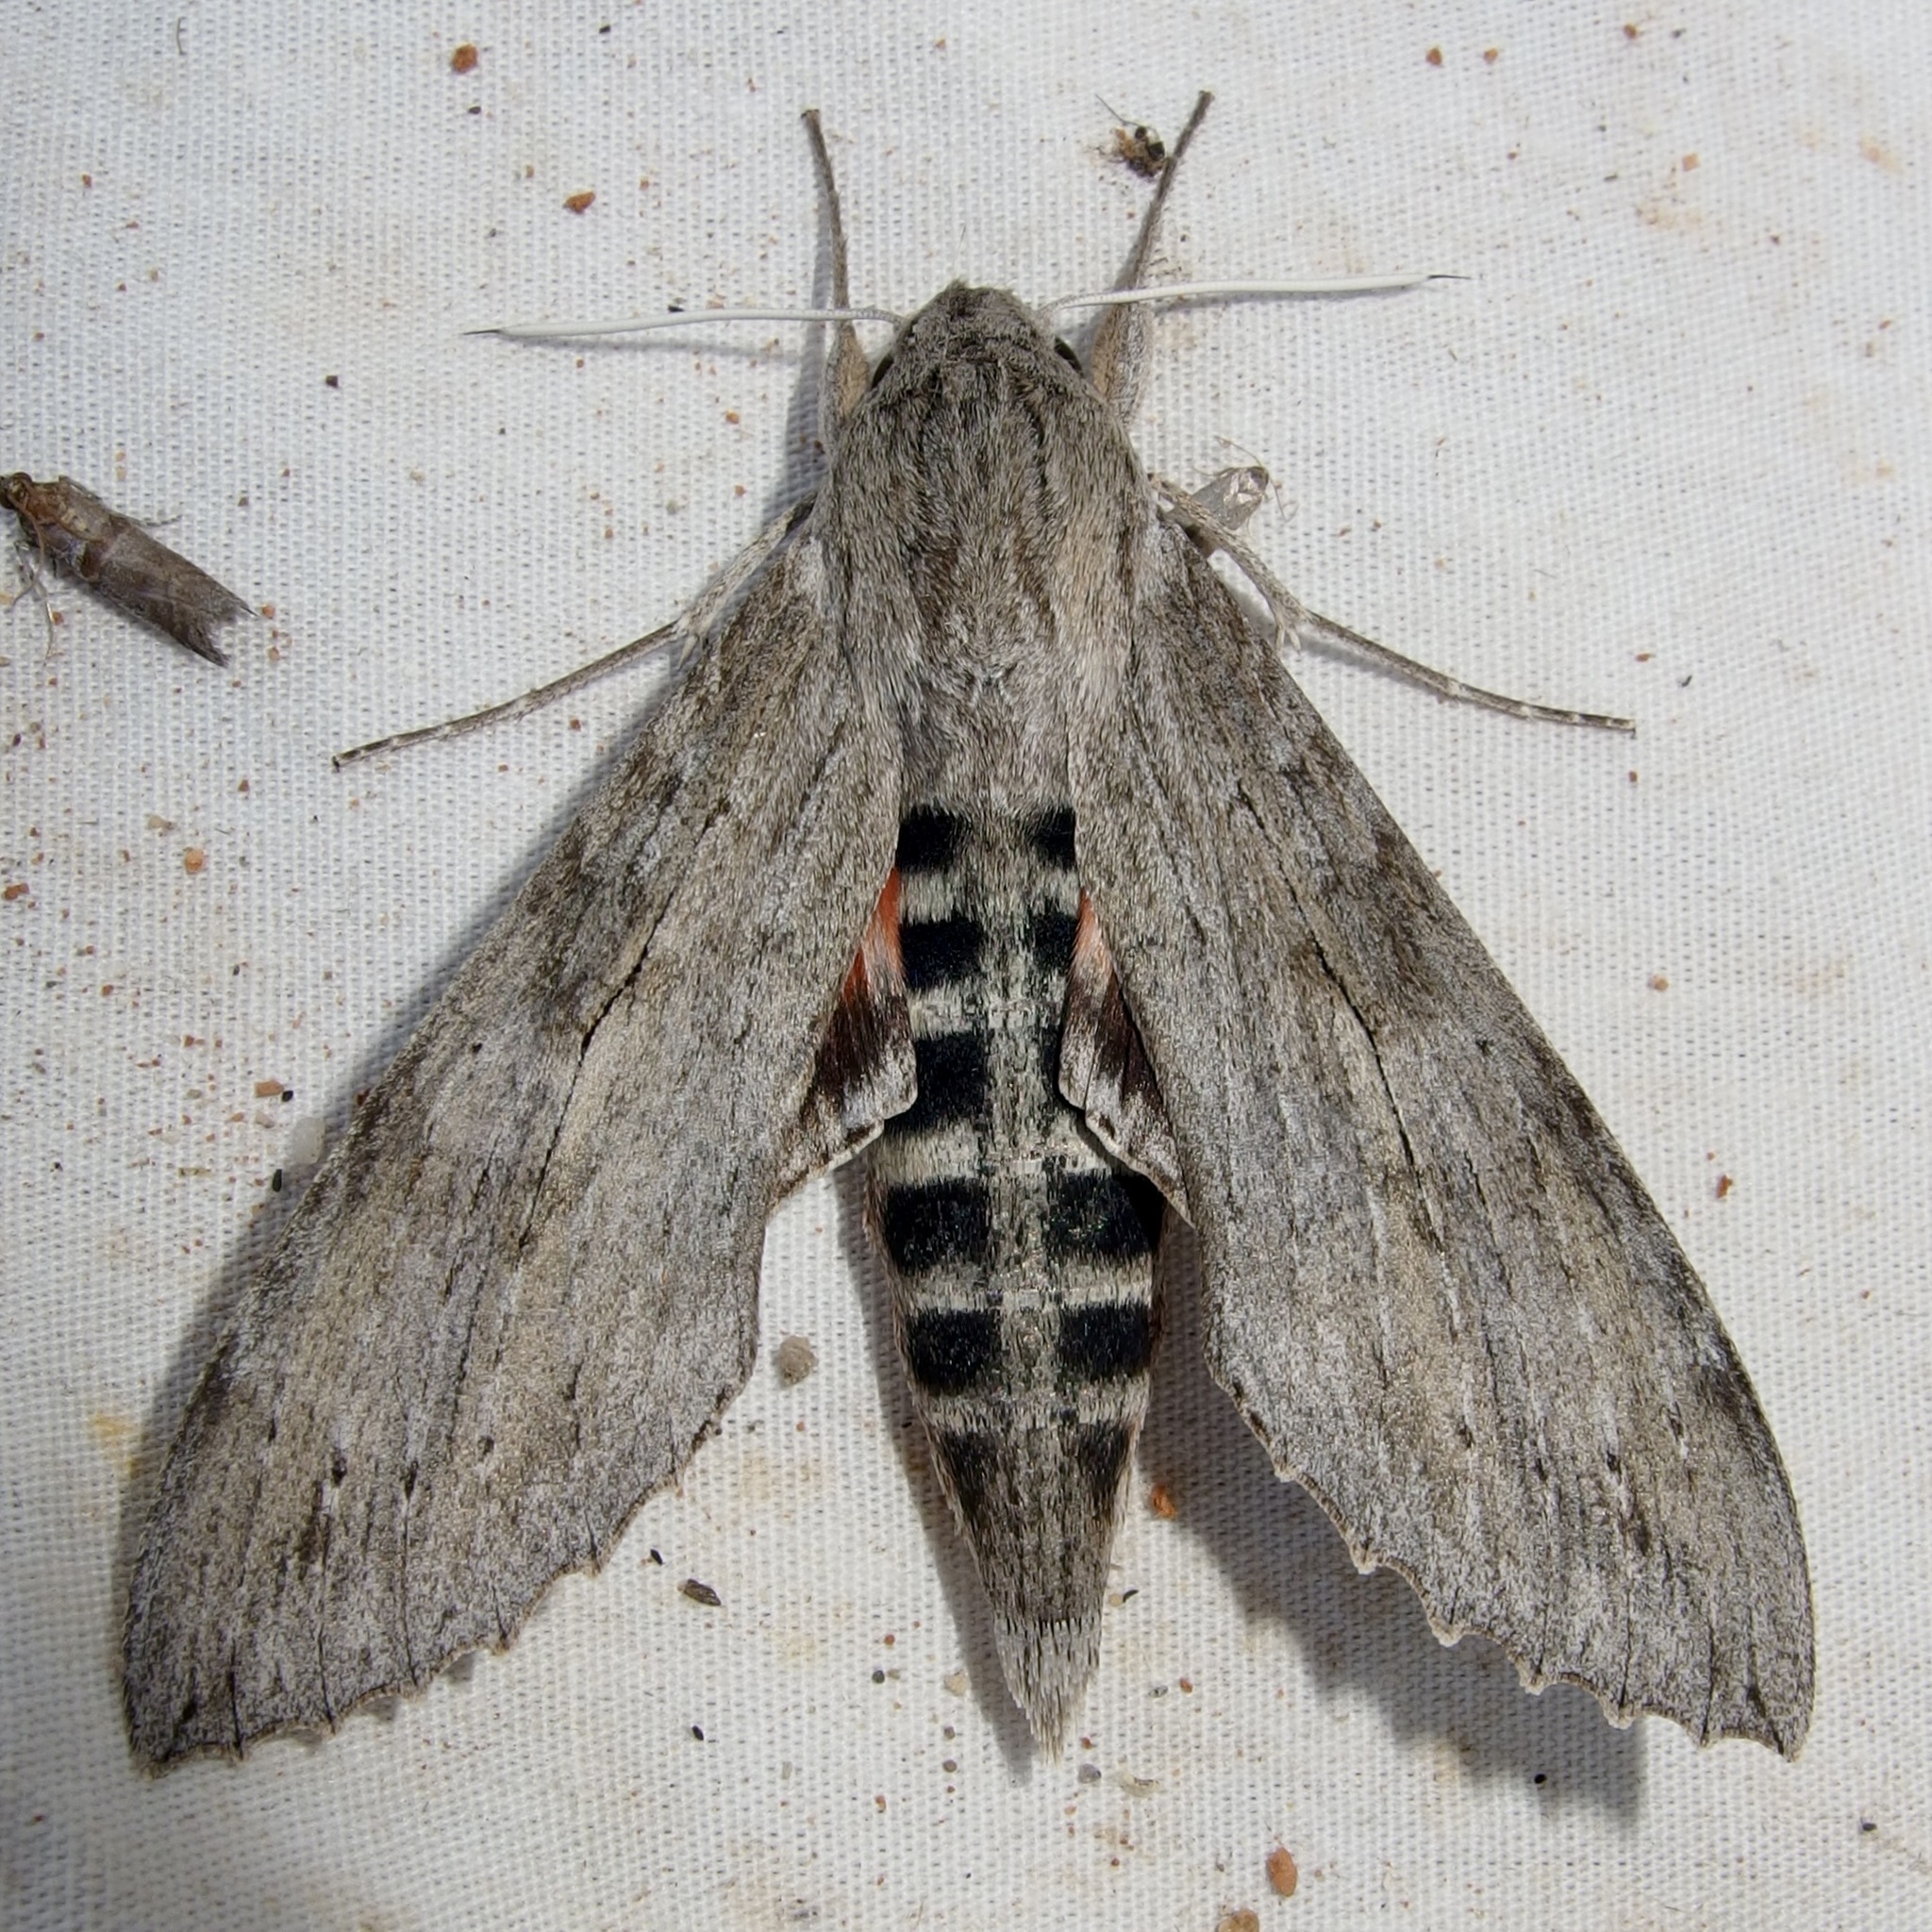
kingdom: Animalia
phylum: Arthropoda
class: Insecta
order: Lepidoptera
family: Sphingidae
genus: Erinnyis
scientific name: Erinnyis ello
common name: Ello sphinx
